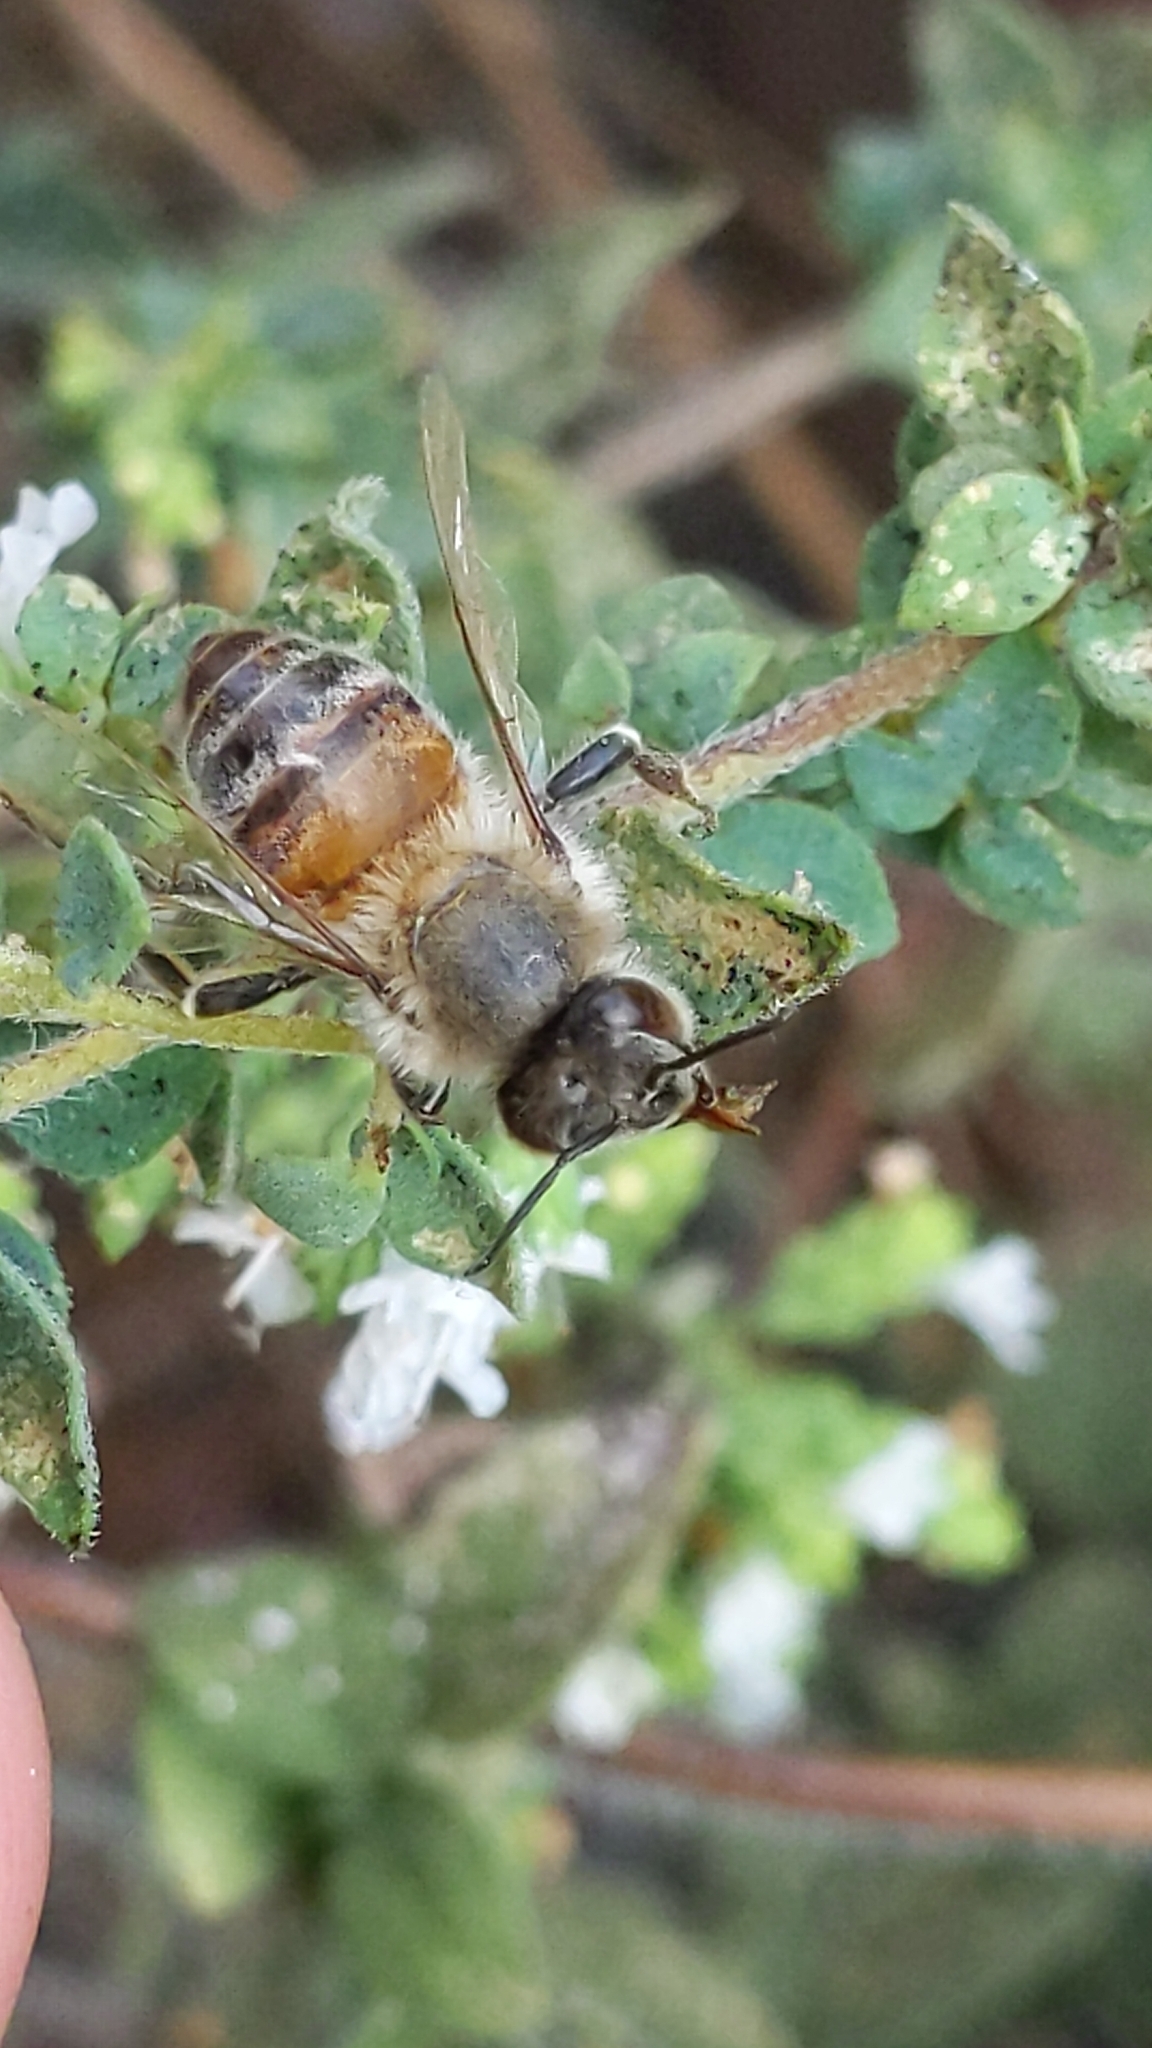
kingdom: Animalia
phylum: Arthropoda
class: Insecta
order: Hymenoptera
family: Apidae
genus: Apis
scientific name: Apis mellifera
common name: Honey bee
